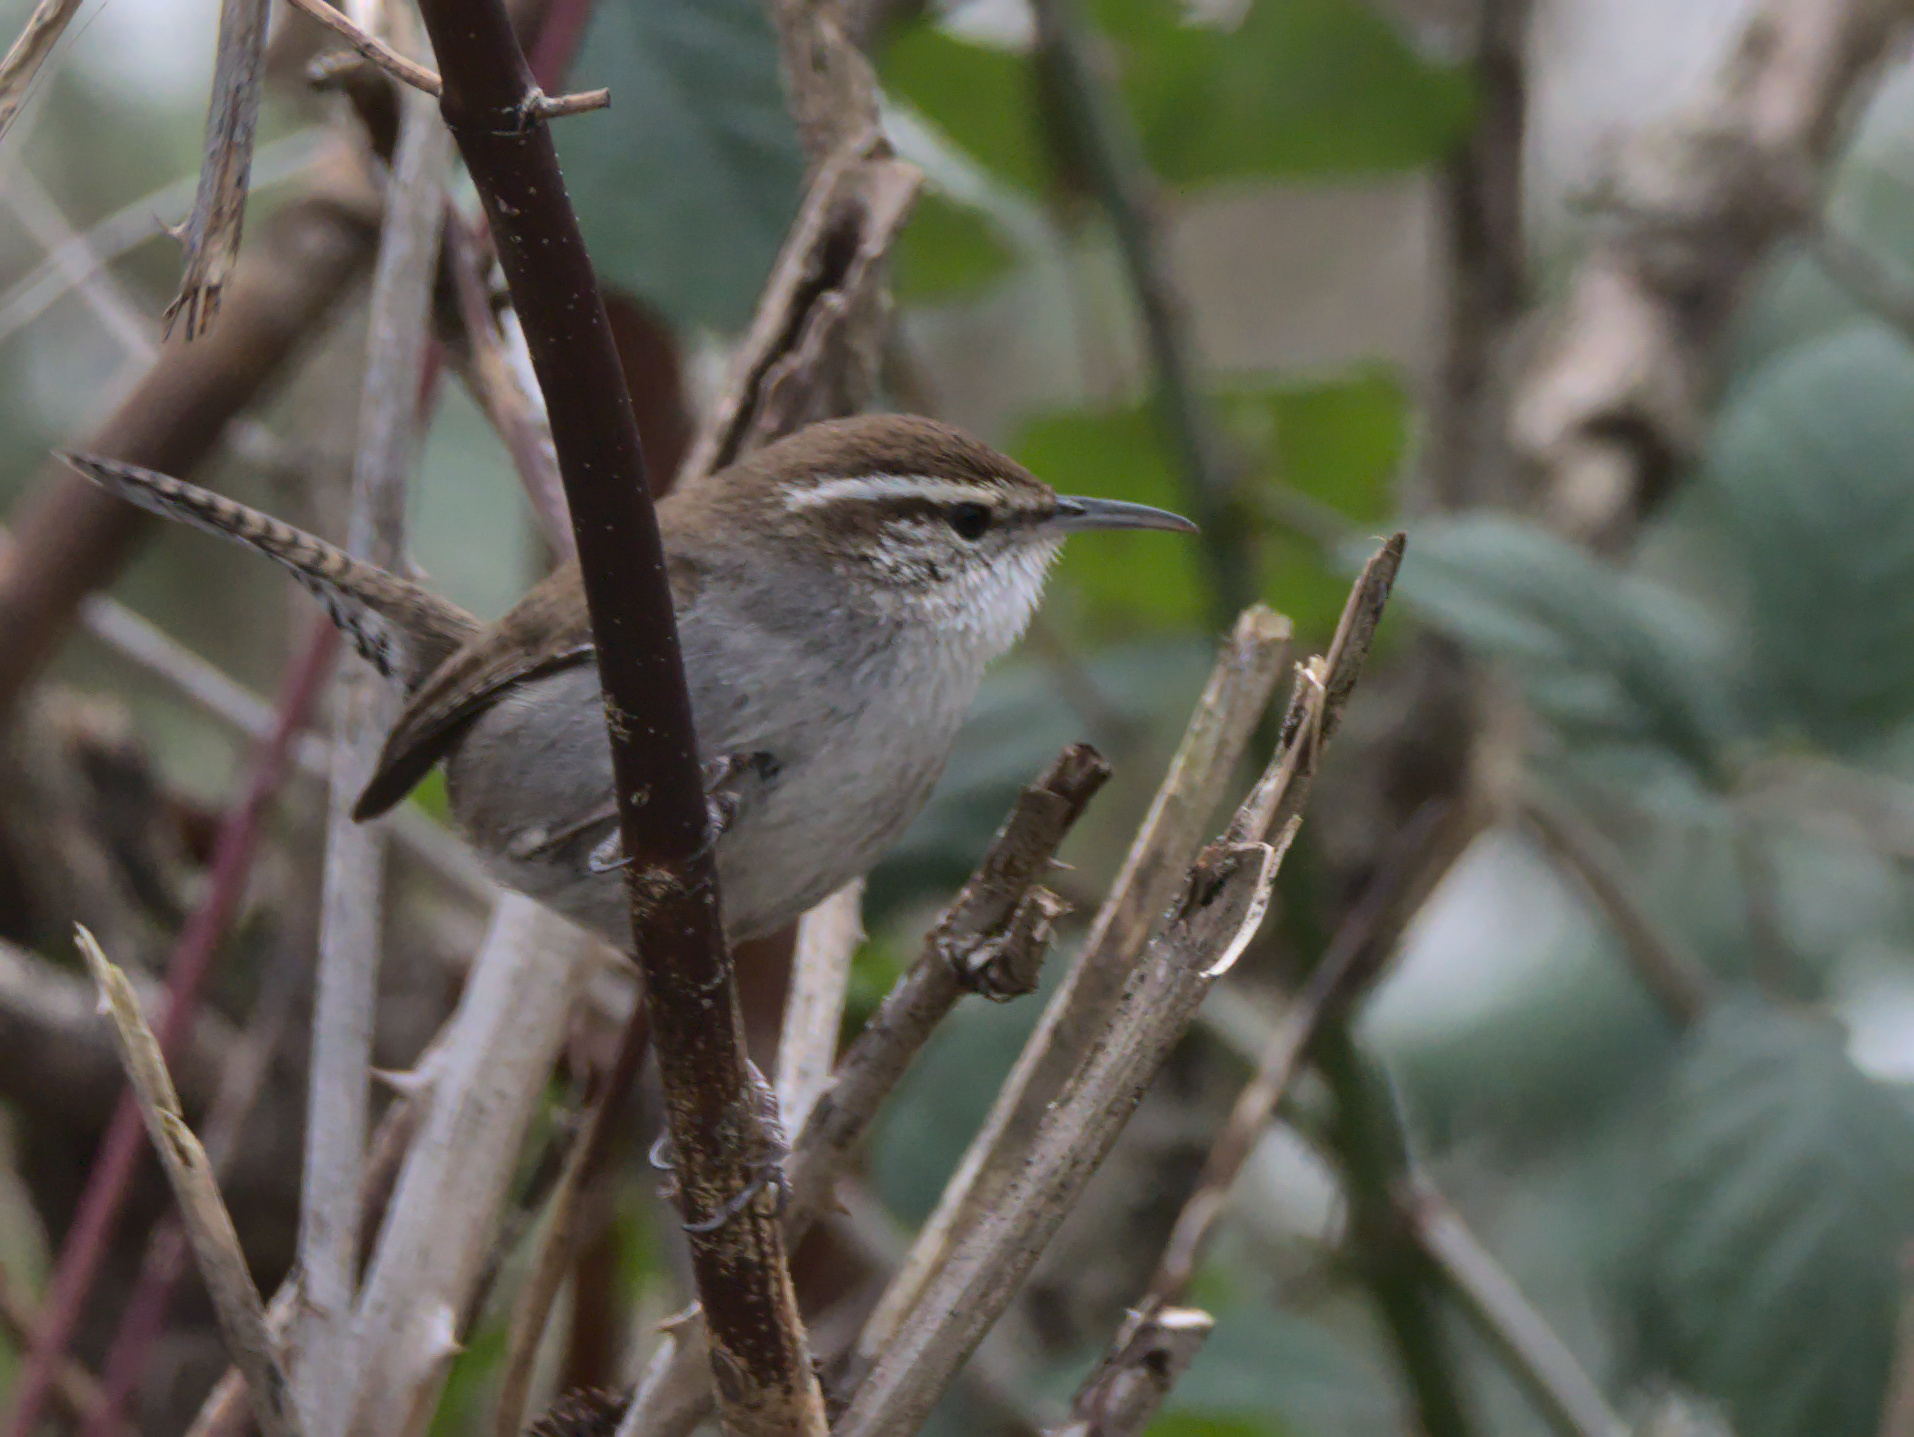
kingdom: Animalia
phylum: Chordata
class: Aves
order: Passeriformes
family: Troglodytidae
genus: Thryomanes
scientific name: Thryomanes bewickii
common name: Bewick's wren
